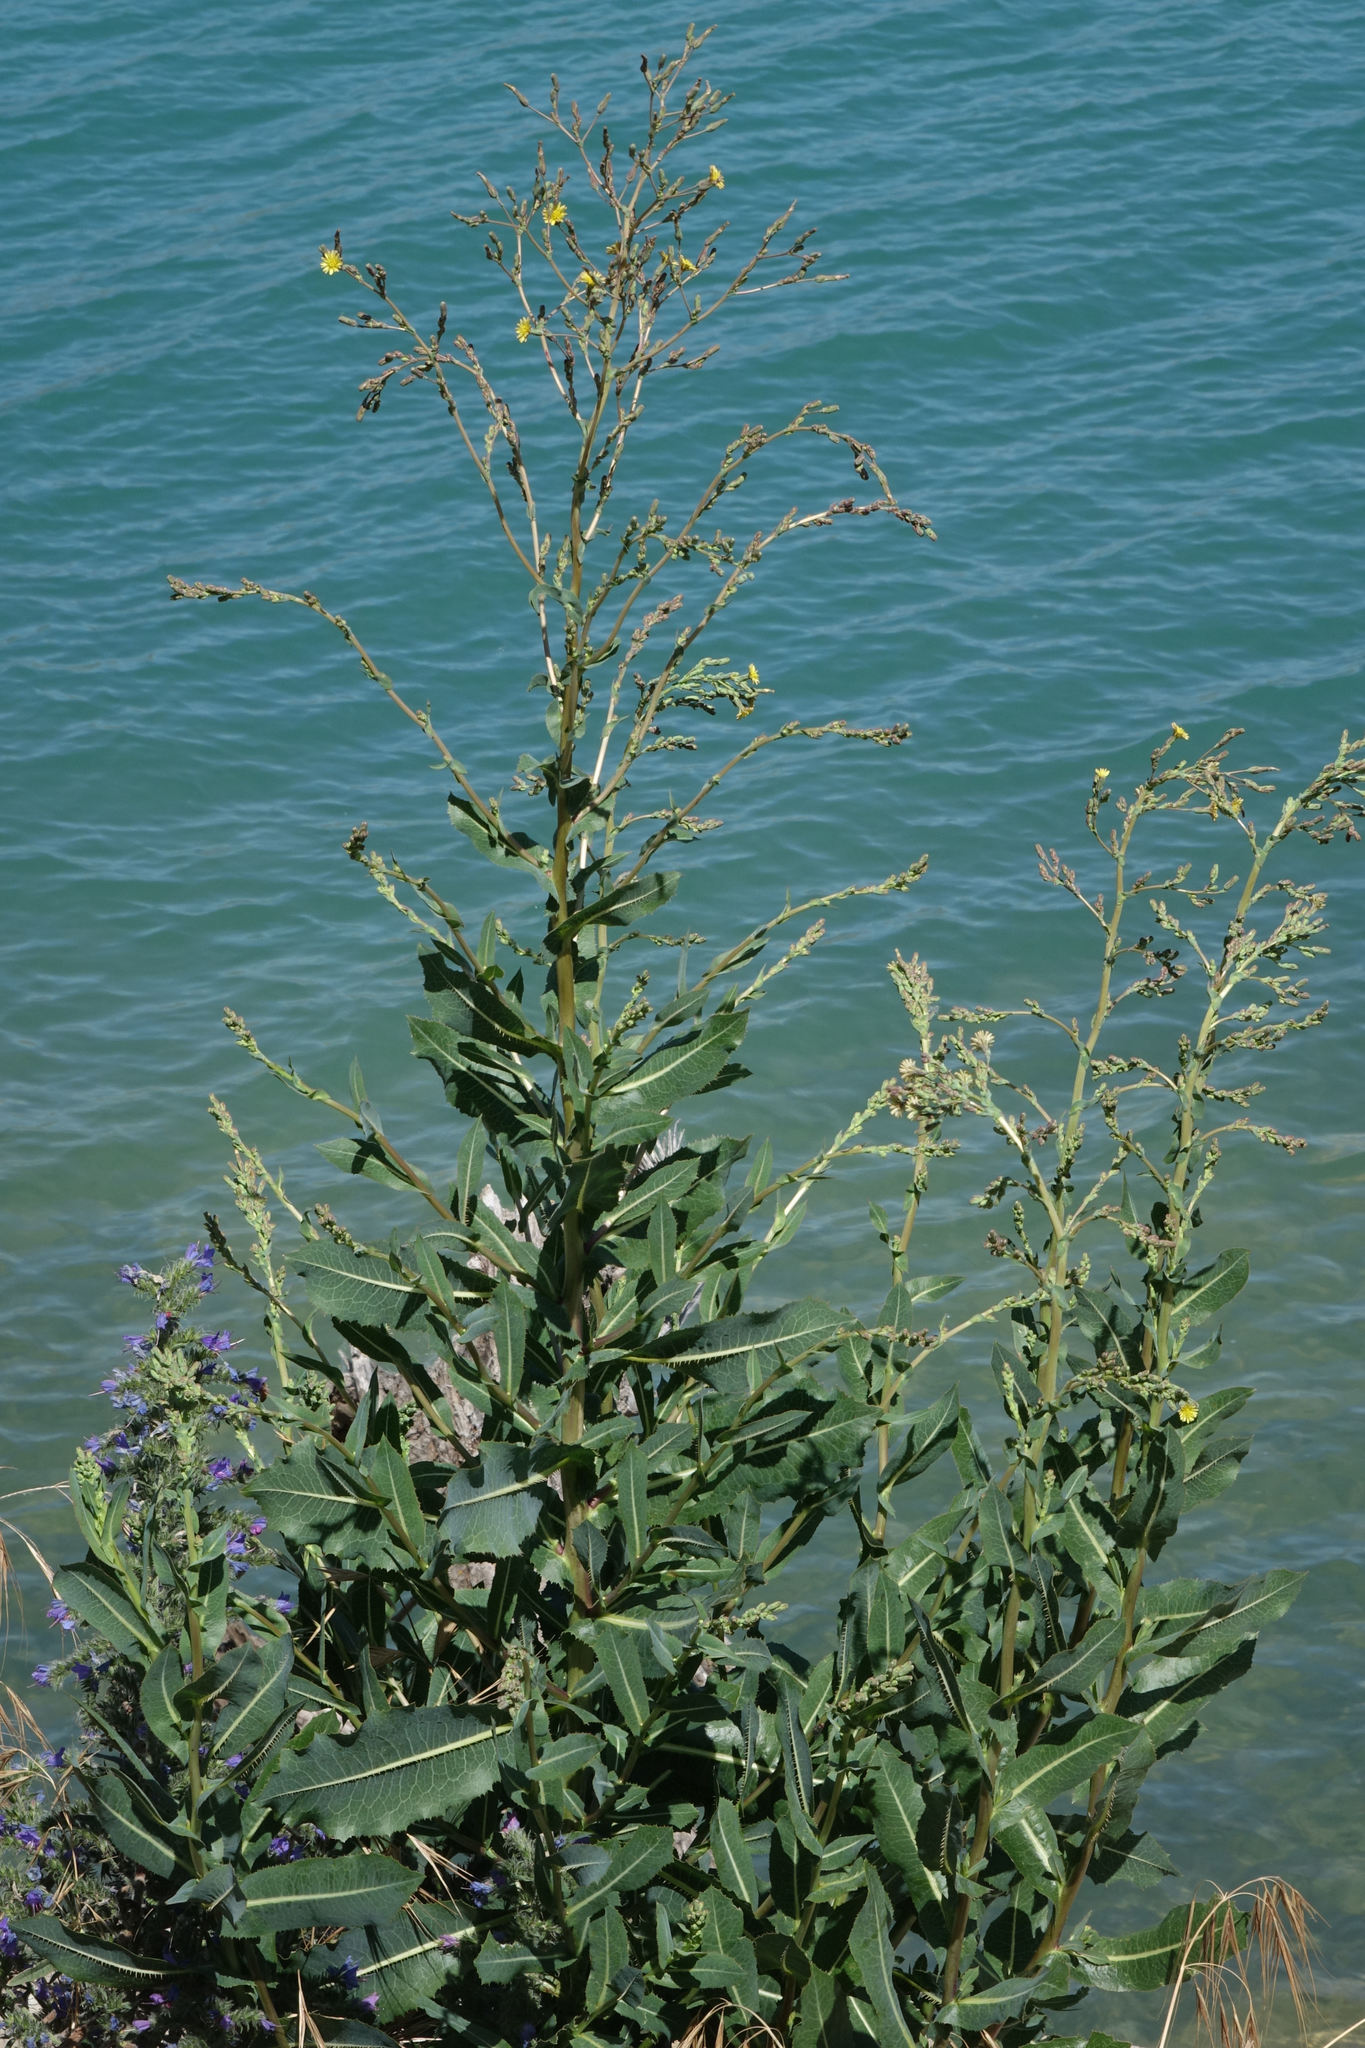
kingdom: Plantae
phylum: Tracheophyta
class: Magnoliopsida
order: Asterales
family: Asteraceae
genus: Lactuca
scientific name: Lactuca serriola
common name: Prickly lettuce
